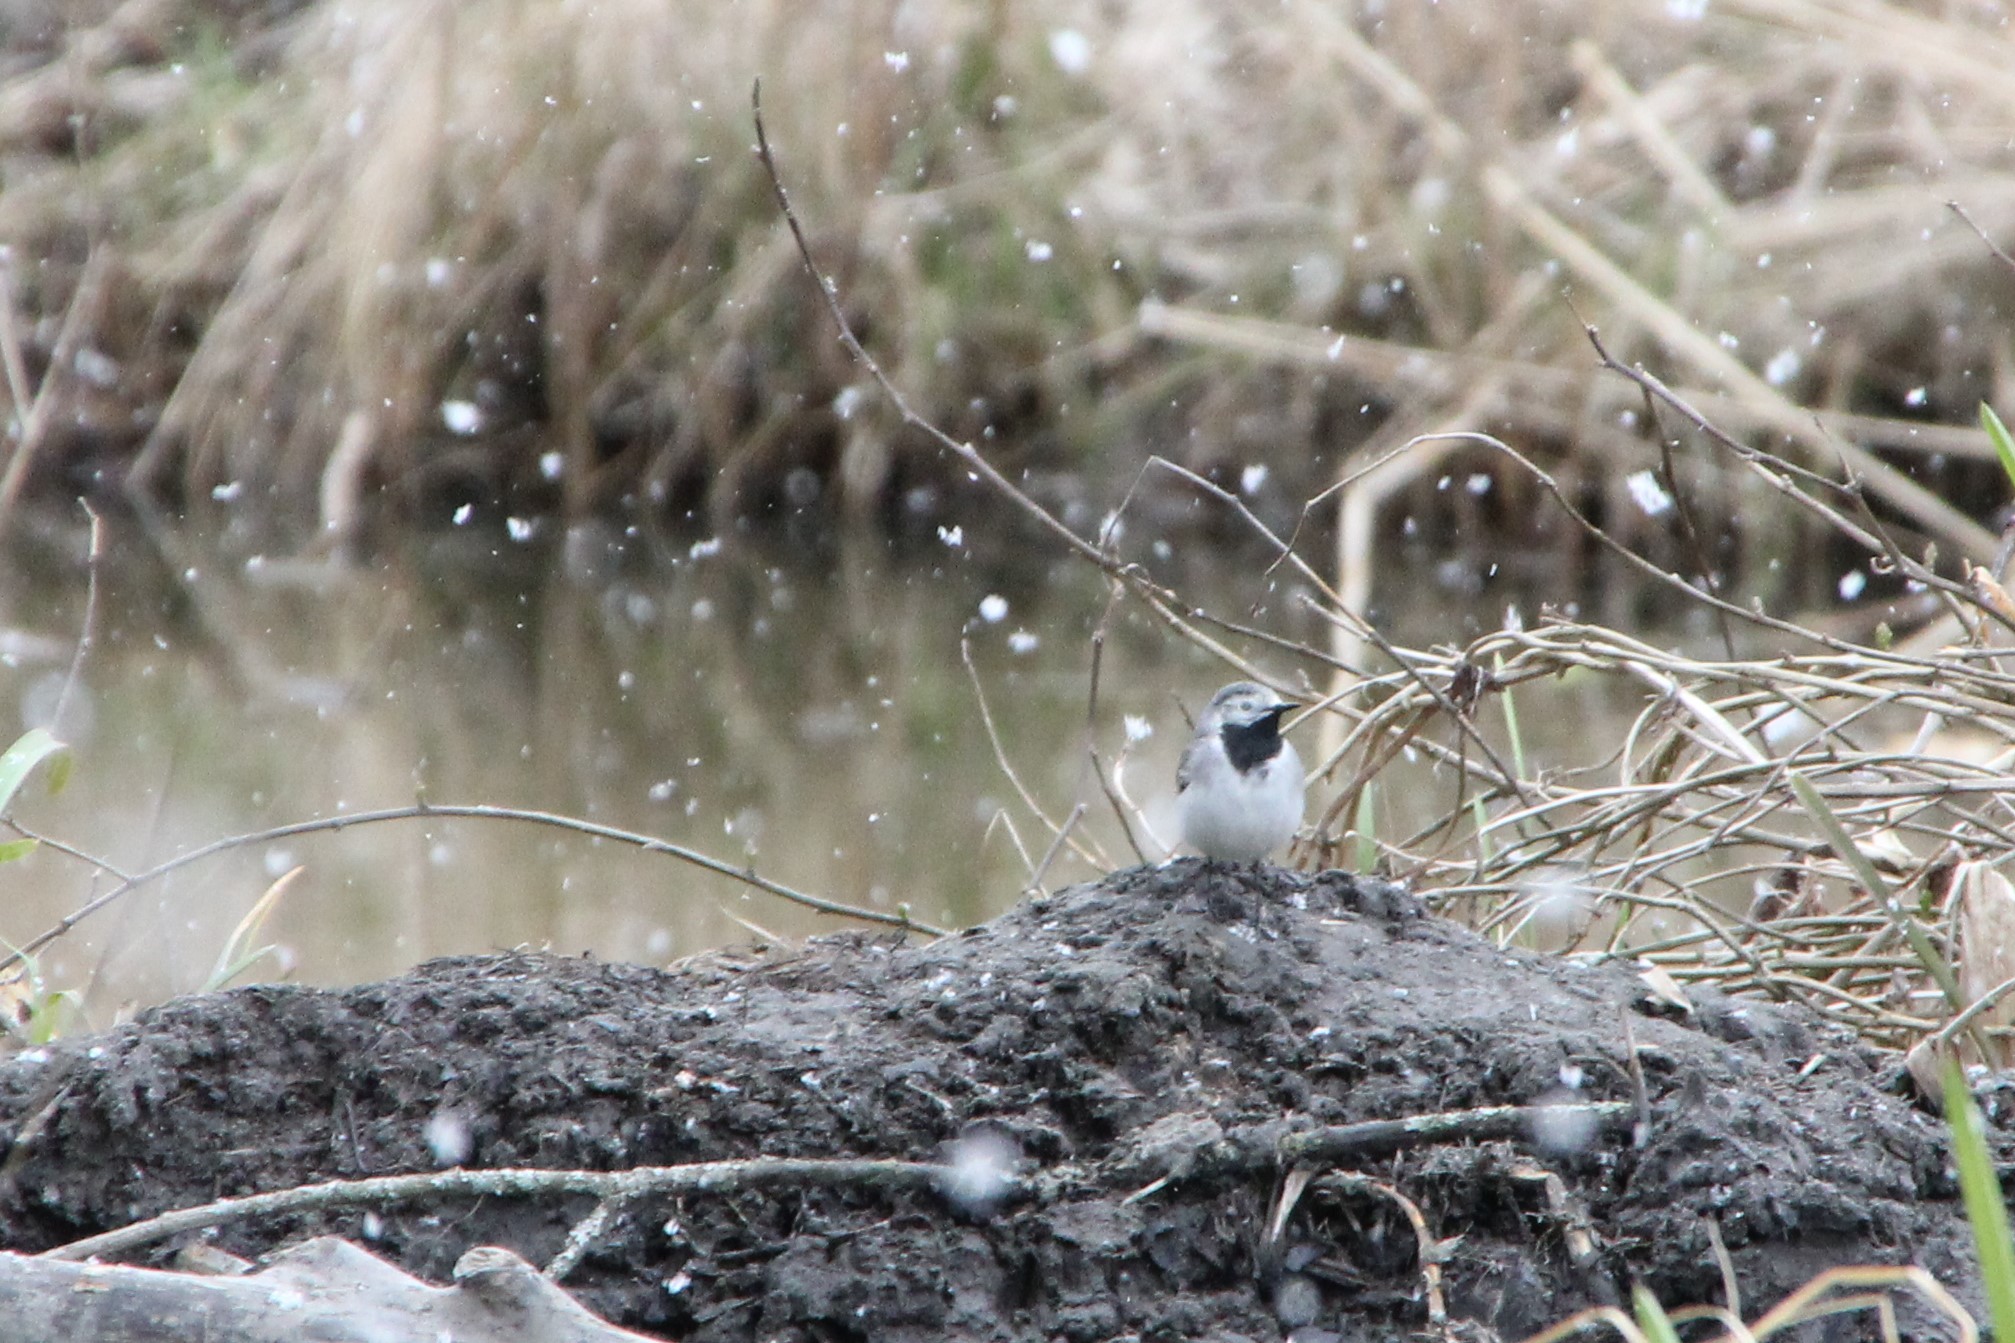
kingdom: Animalia
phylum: Chordata
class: Aves
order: Passeriformes
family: Motacillidae
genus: Motacilla
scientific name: Motacilla alba
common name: White wagtail
